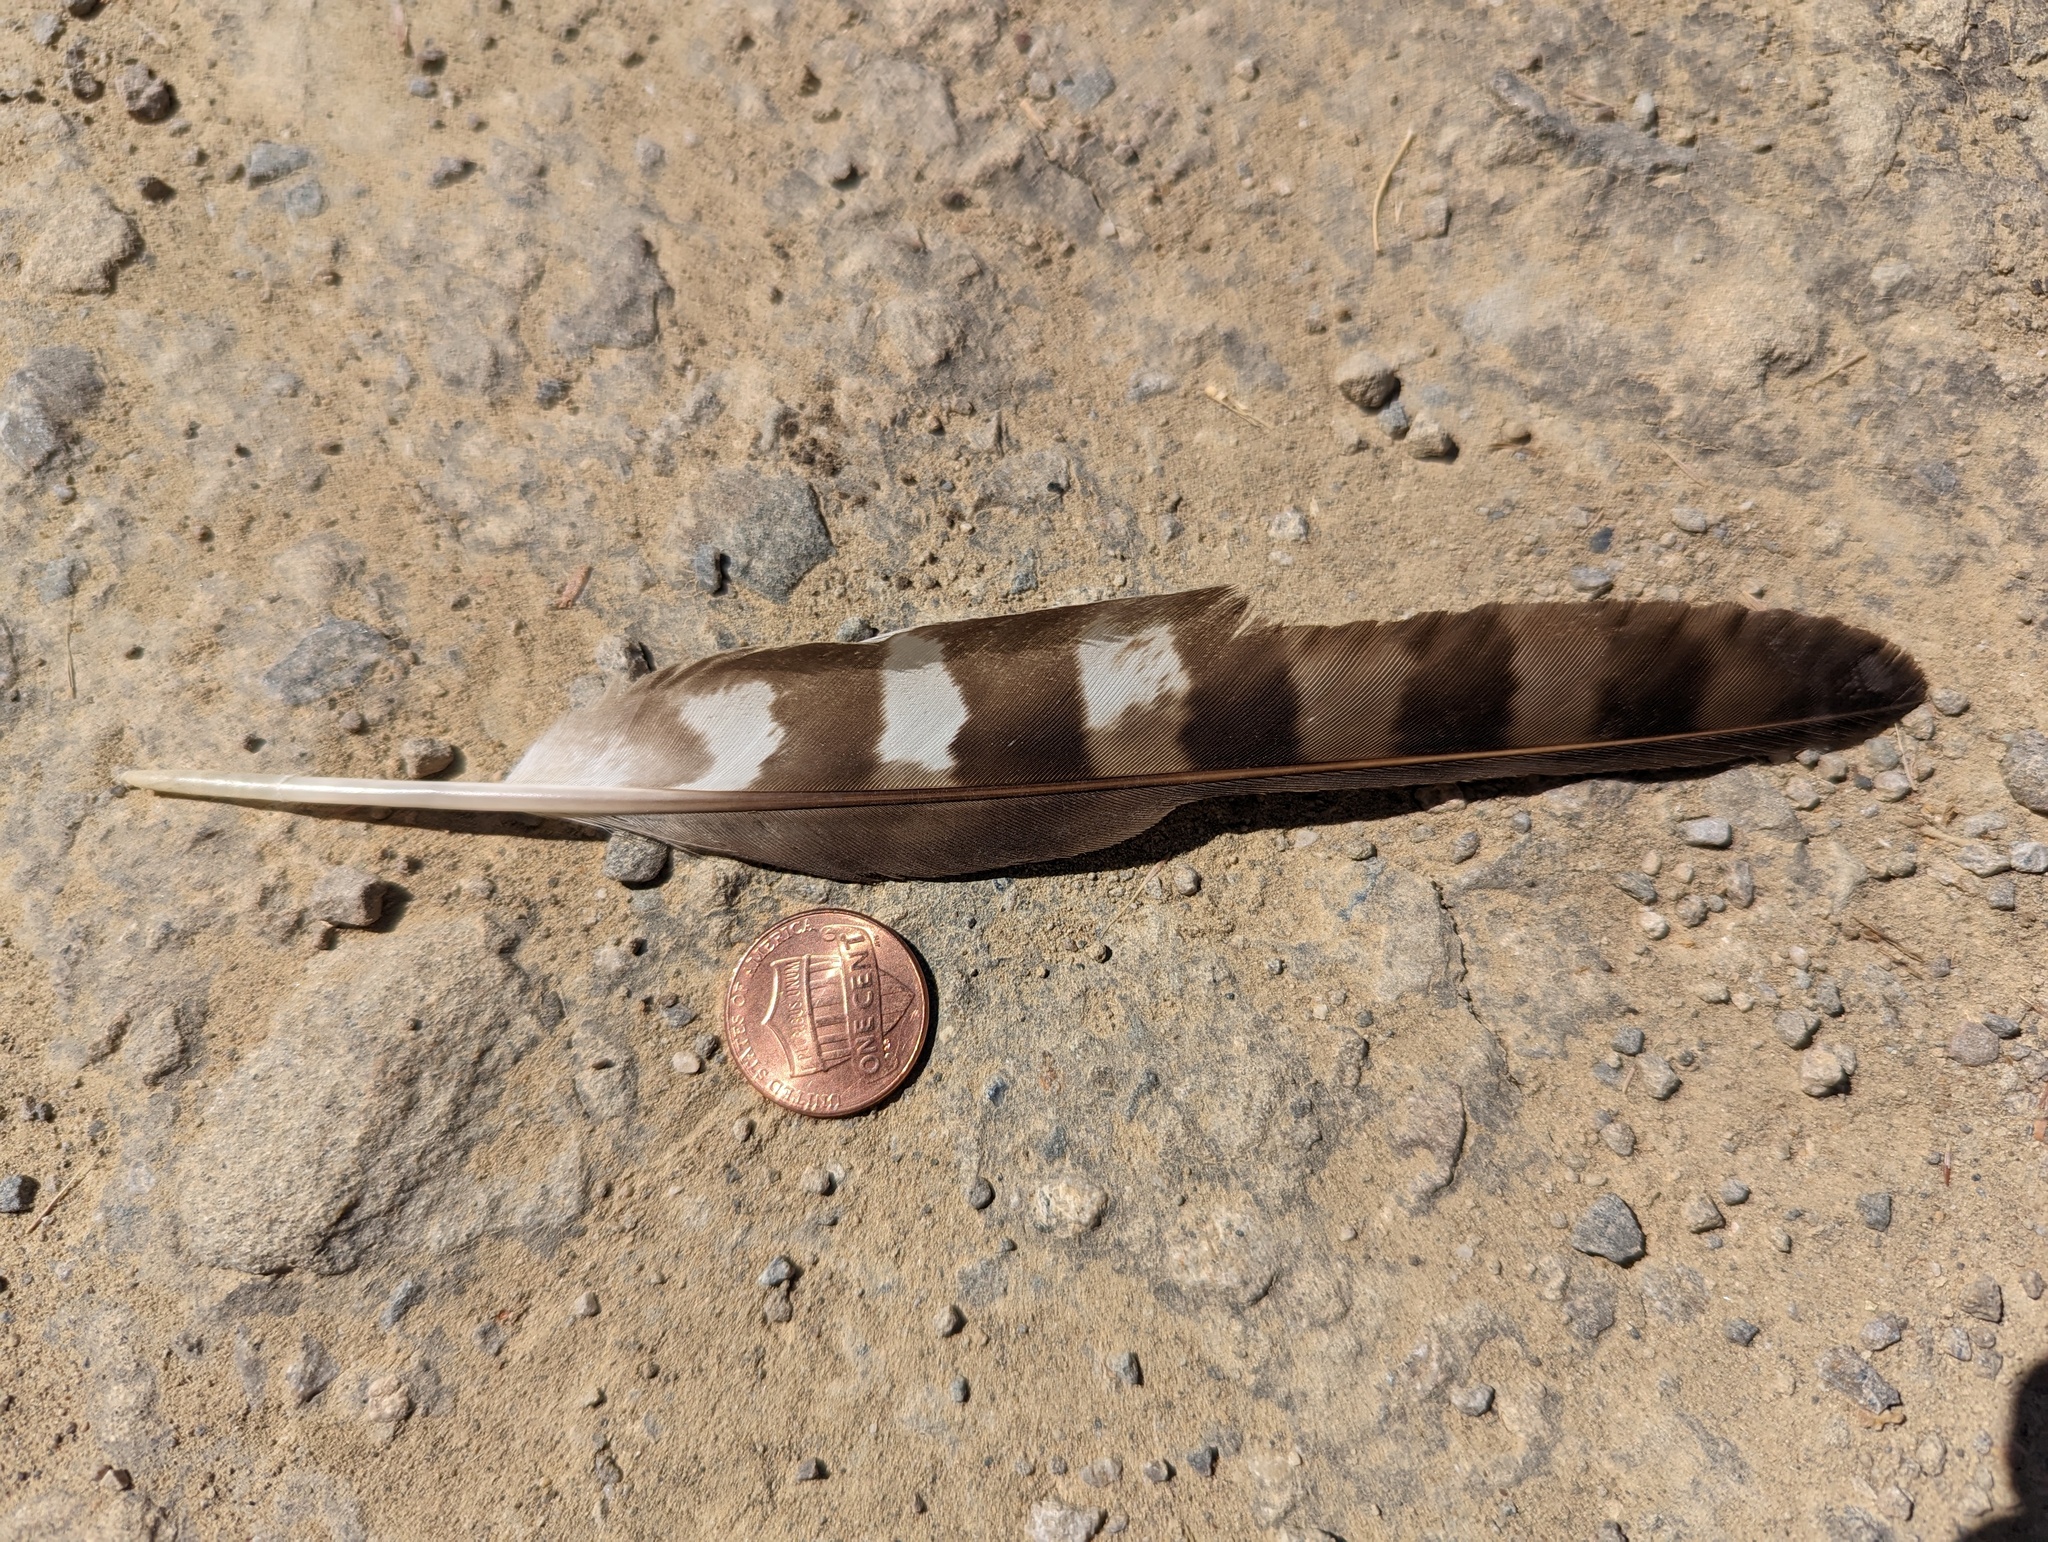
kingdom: Animalia
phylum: Chordata
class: Aves
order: Accipitriformes
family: Accipitridae
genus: Accipiter
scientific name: Accipiter cooperii
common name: Cooper's hawk
